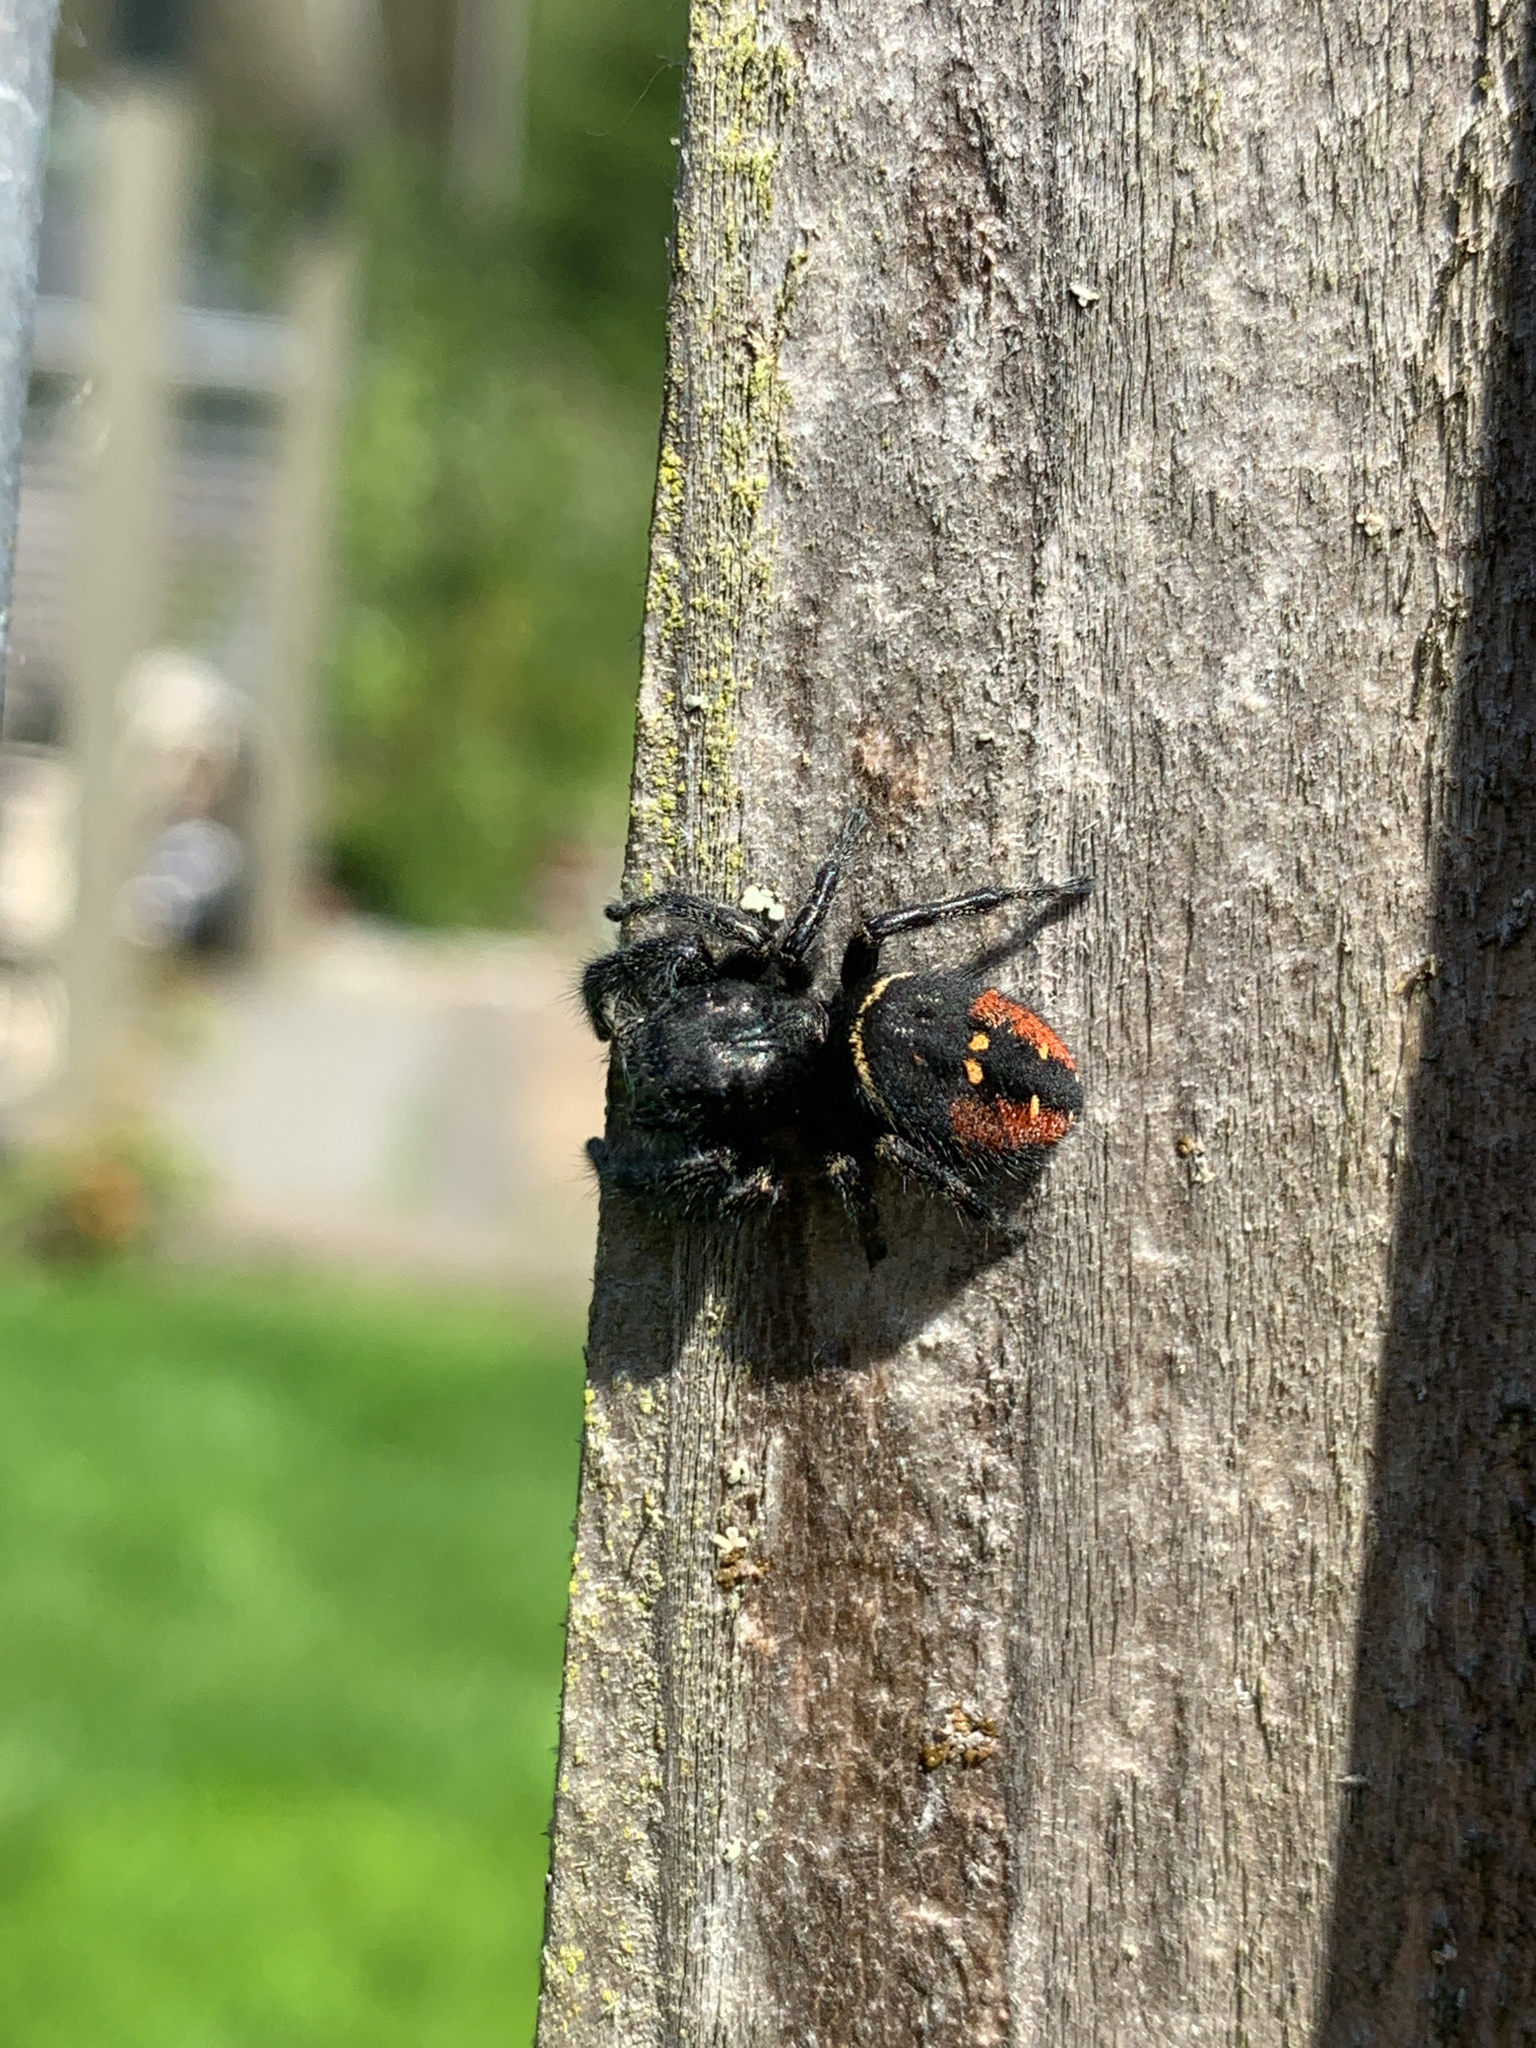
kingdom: Animalia
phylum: Arthropoda
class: Arachnida
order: Araneae
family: Salticidae
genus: Phidippus
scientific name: Phidippus johnsoni
